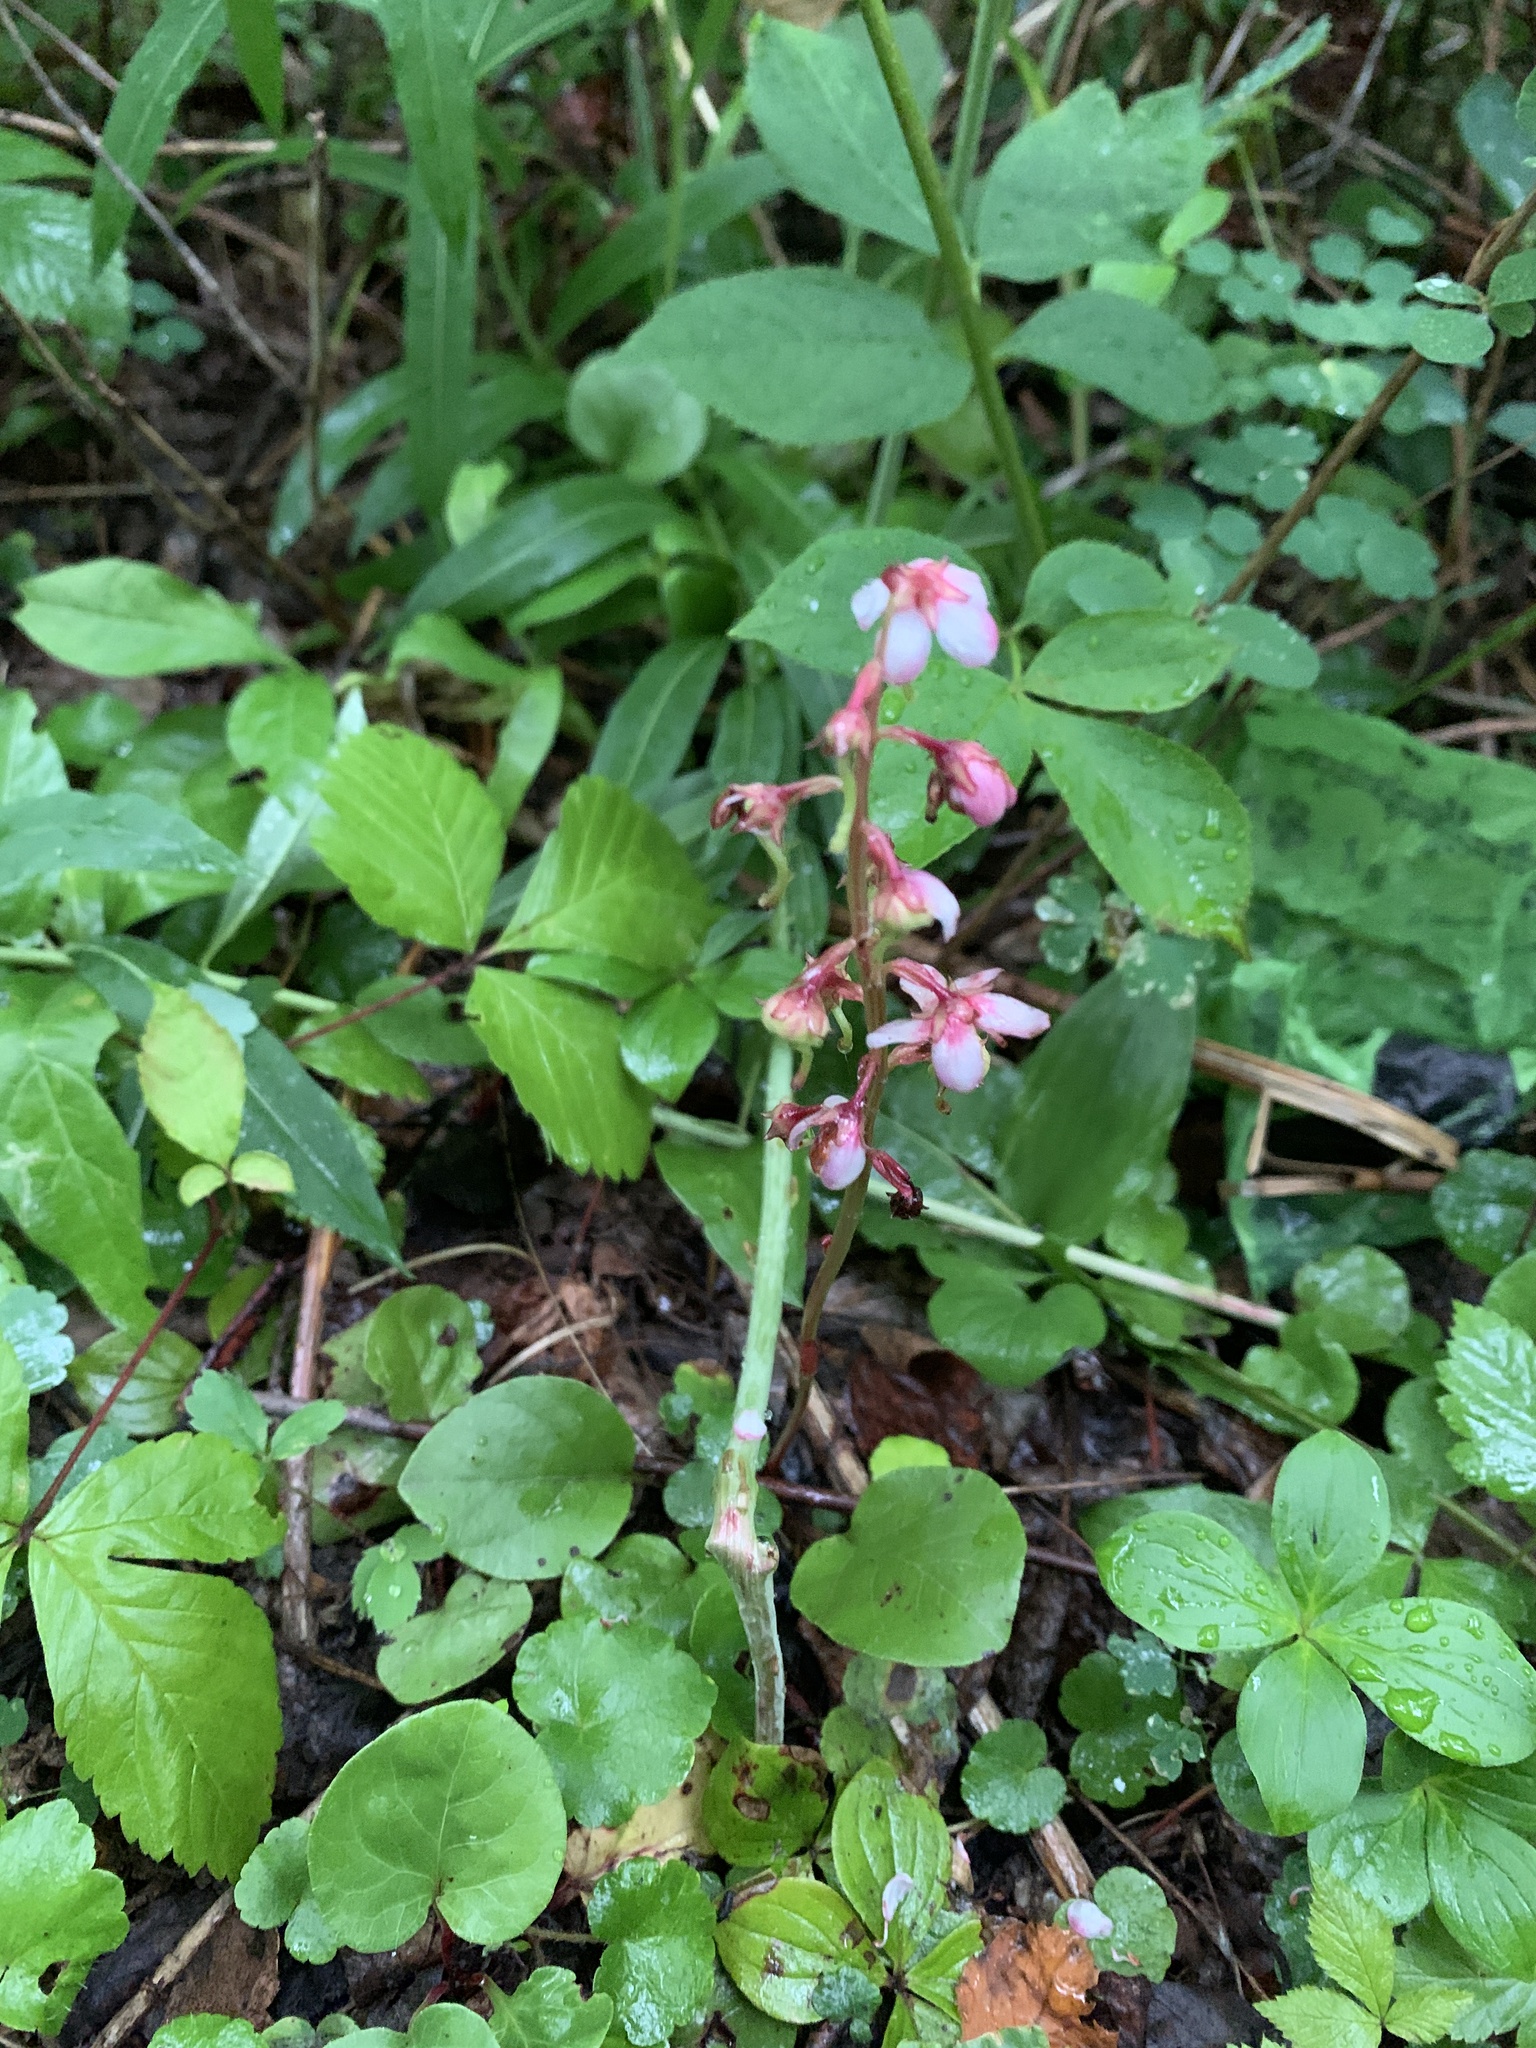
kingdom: Plantae
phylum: Tracheophyta
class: Magnoliopsida
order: Ericales
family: Ericaceae
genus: Pyrola
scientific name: Pyrola asarifolia
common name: Bog wintergreen
